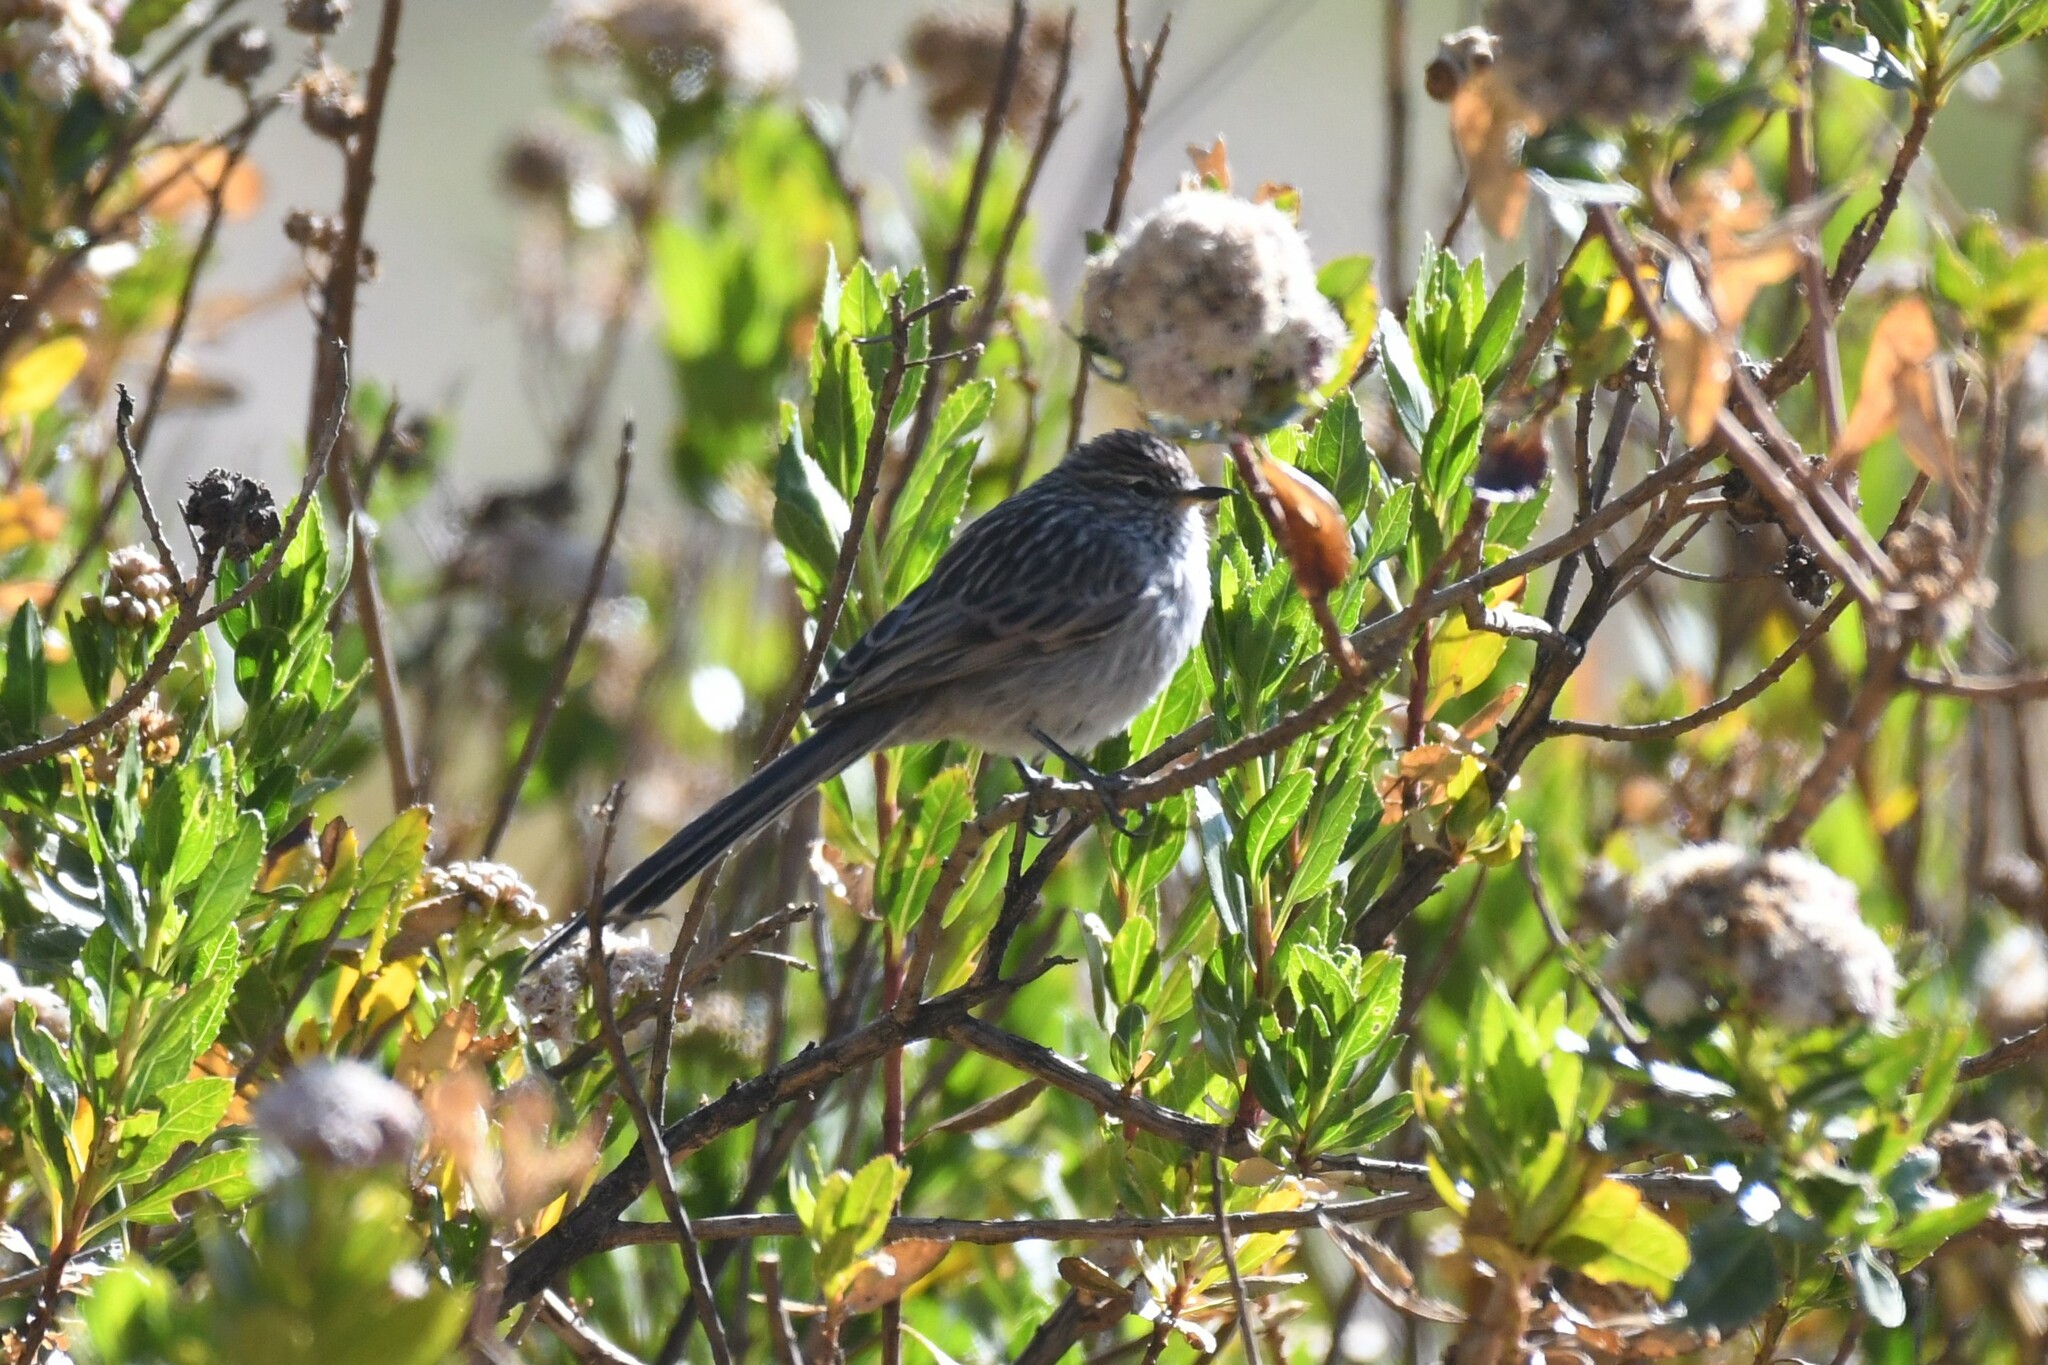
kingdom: Animalia
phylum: Chordata
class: Aves
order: Passeriformes
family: Furnariidae
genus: Leptasthenura
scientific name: Leptasthenura striata
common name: Streak-backed tit-spinetail
